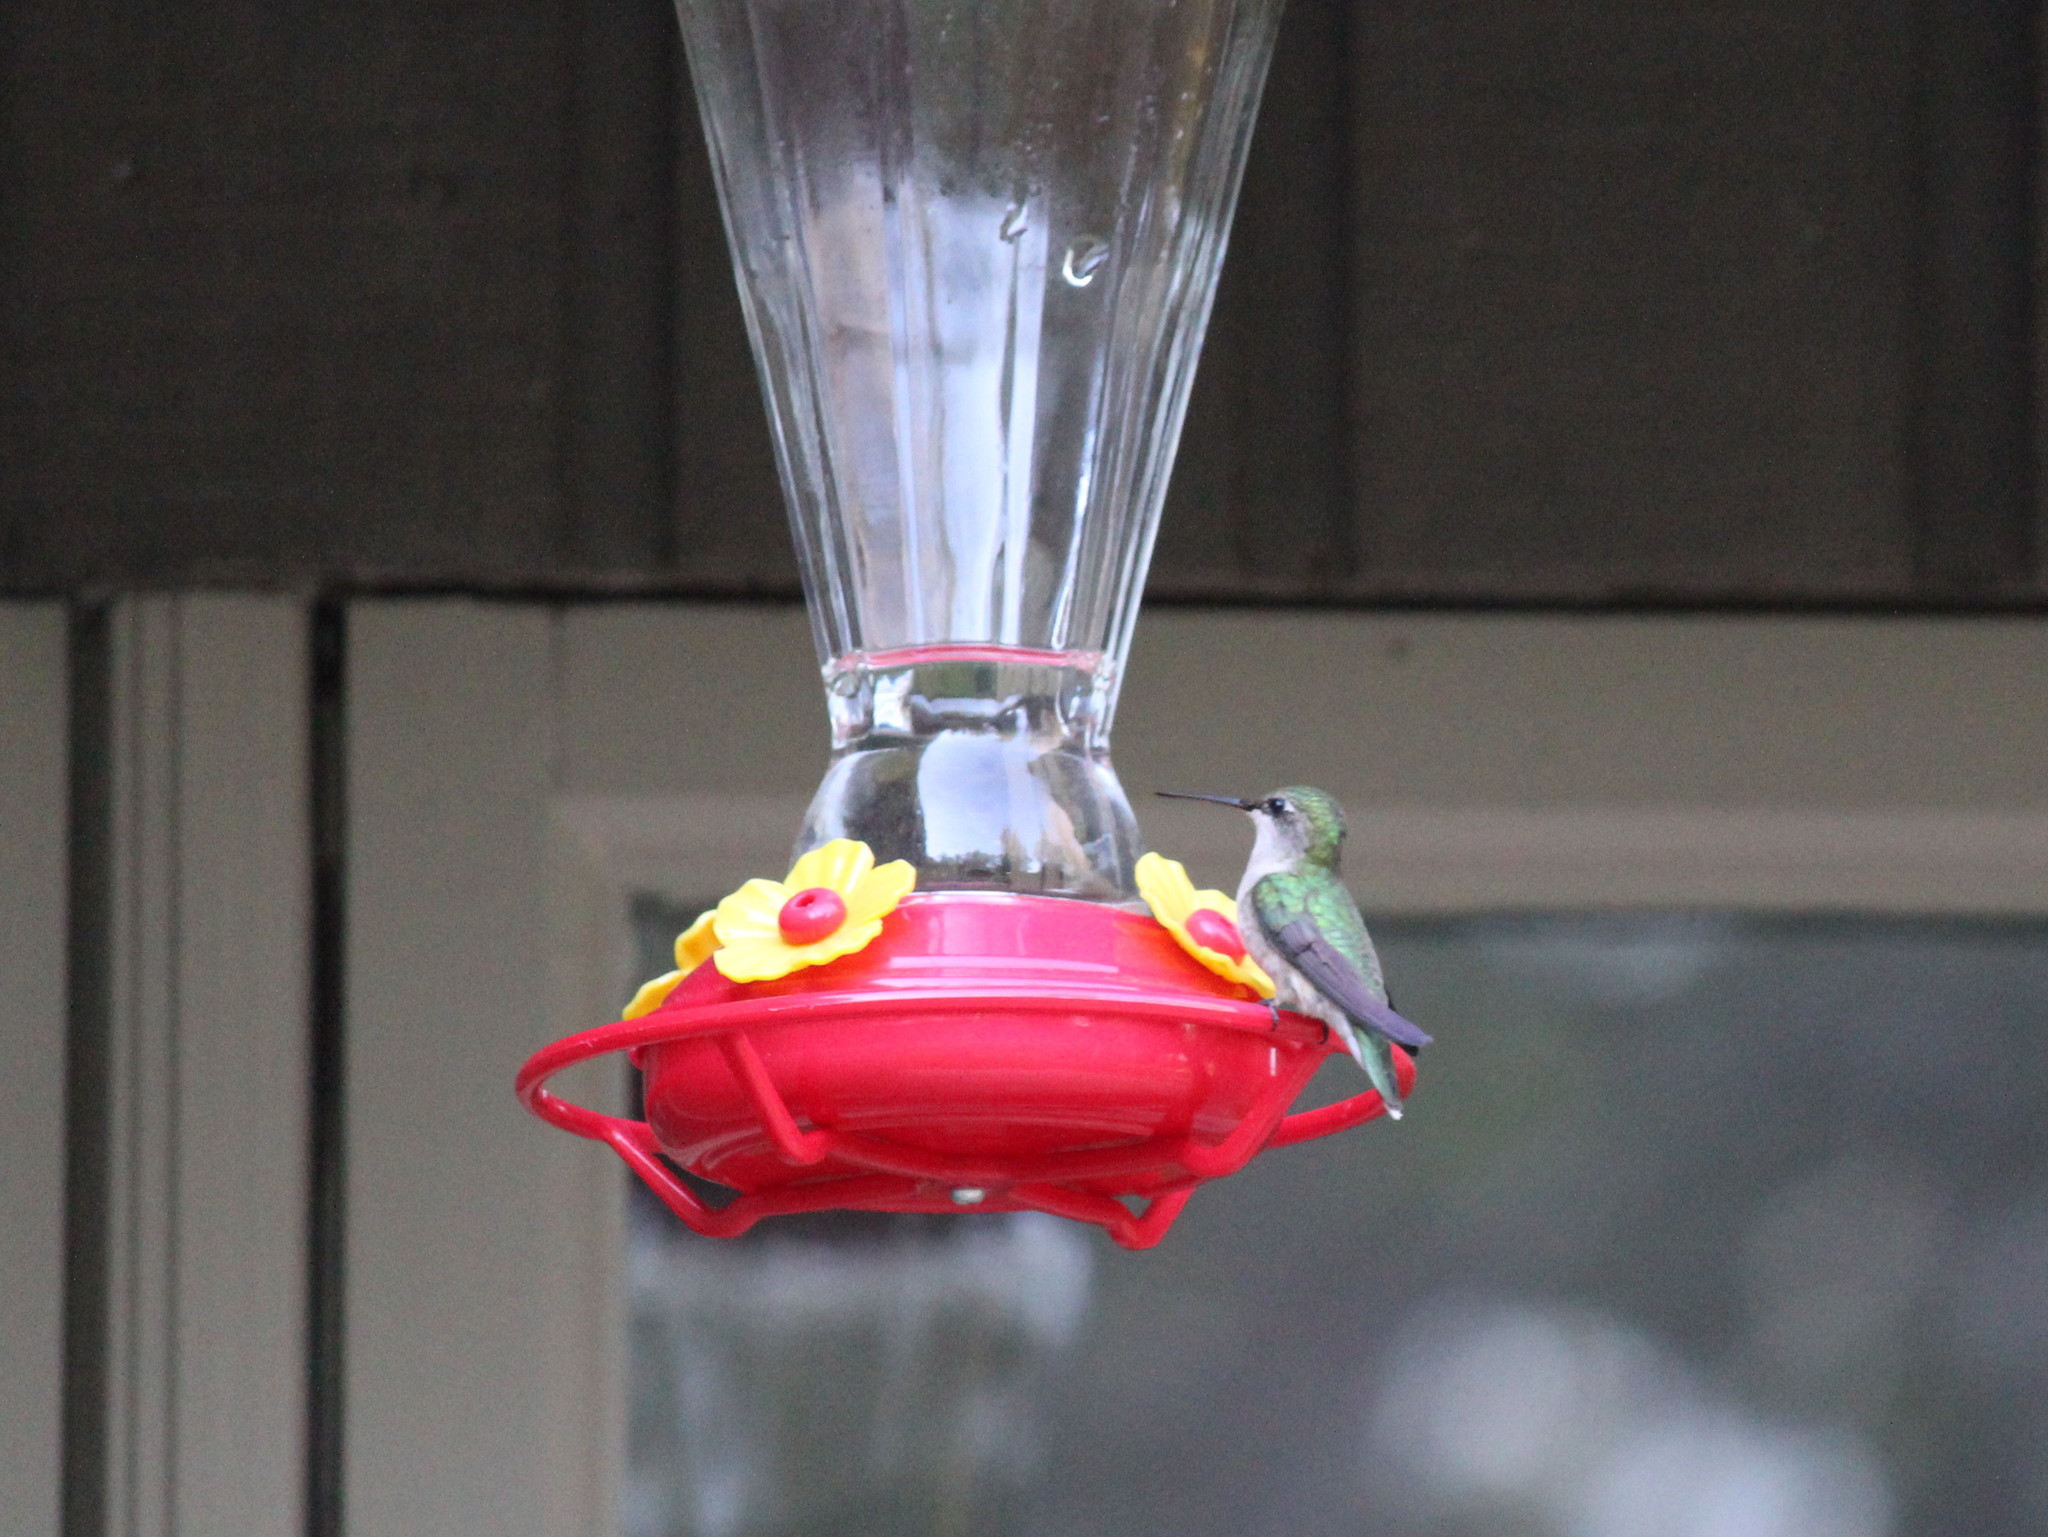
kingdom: Animalia
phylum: Chordata
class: Aves
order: Apodiformes
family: Trochilidae
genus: Archilochus
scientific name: Archilochus colubris
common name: Ruby-throated hummingbird
